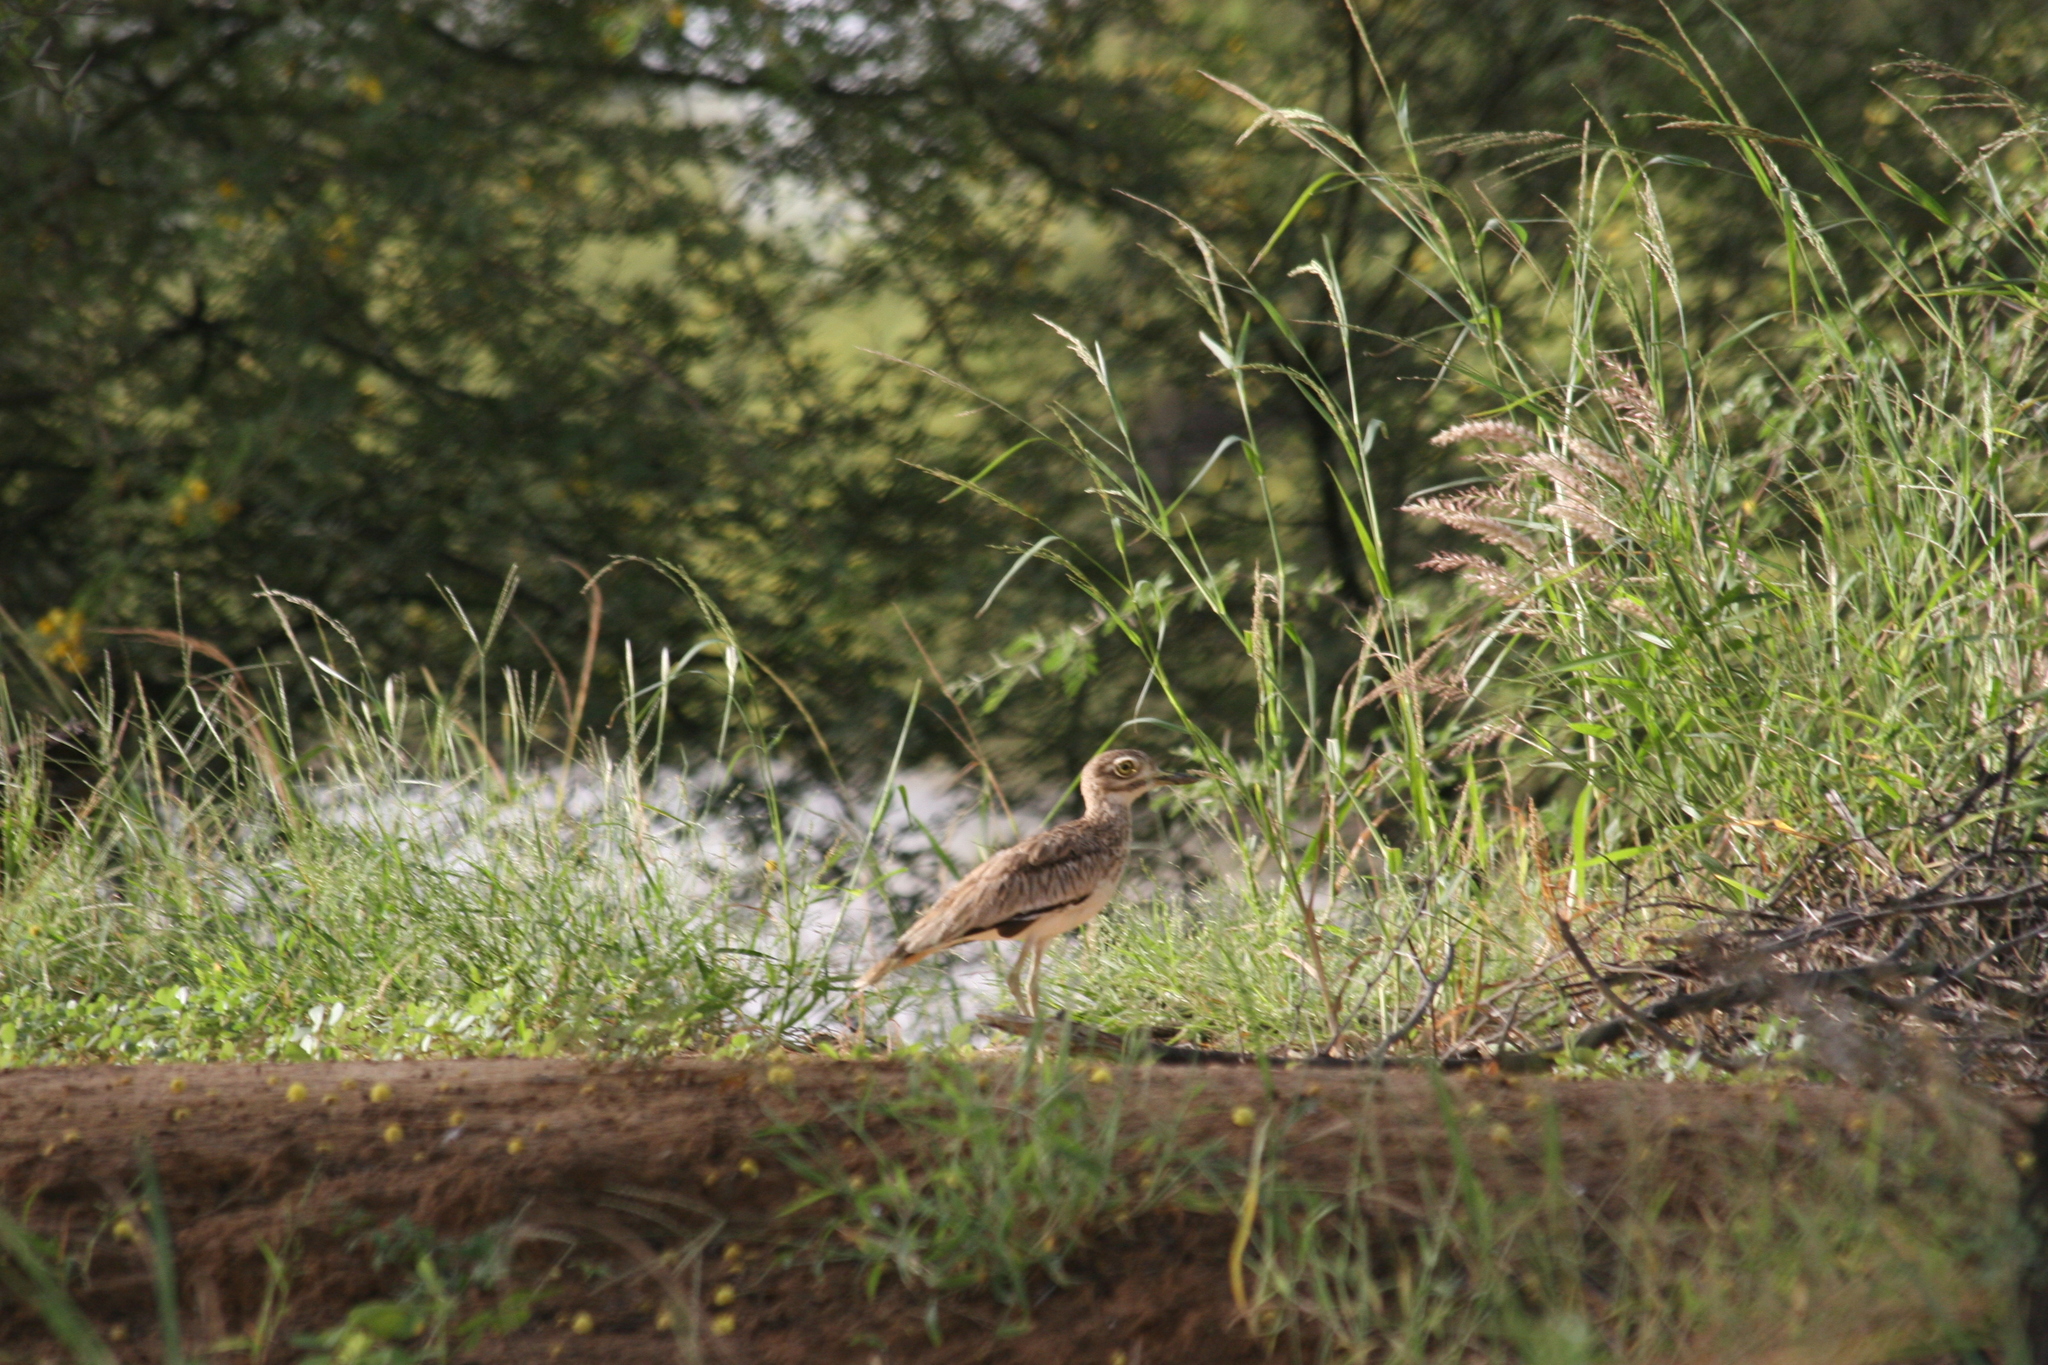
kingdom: Animalia
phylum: Chordata
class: Aves
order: Charadriiformes
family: Burhinidae
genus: Burhinus
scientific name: Burhinus senegalensis
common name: Senegal thick-knee
